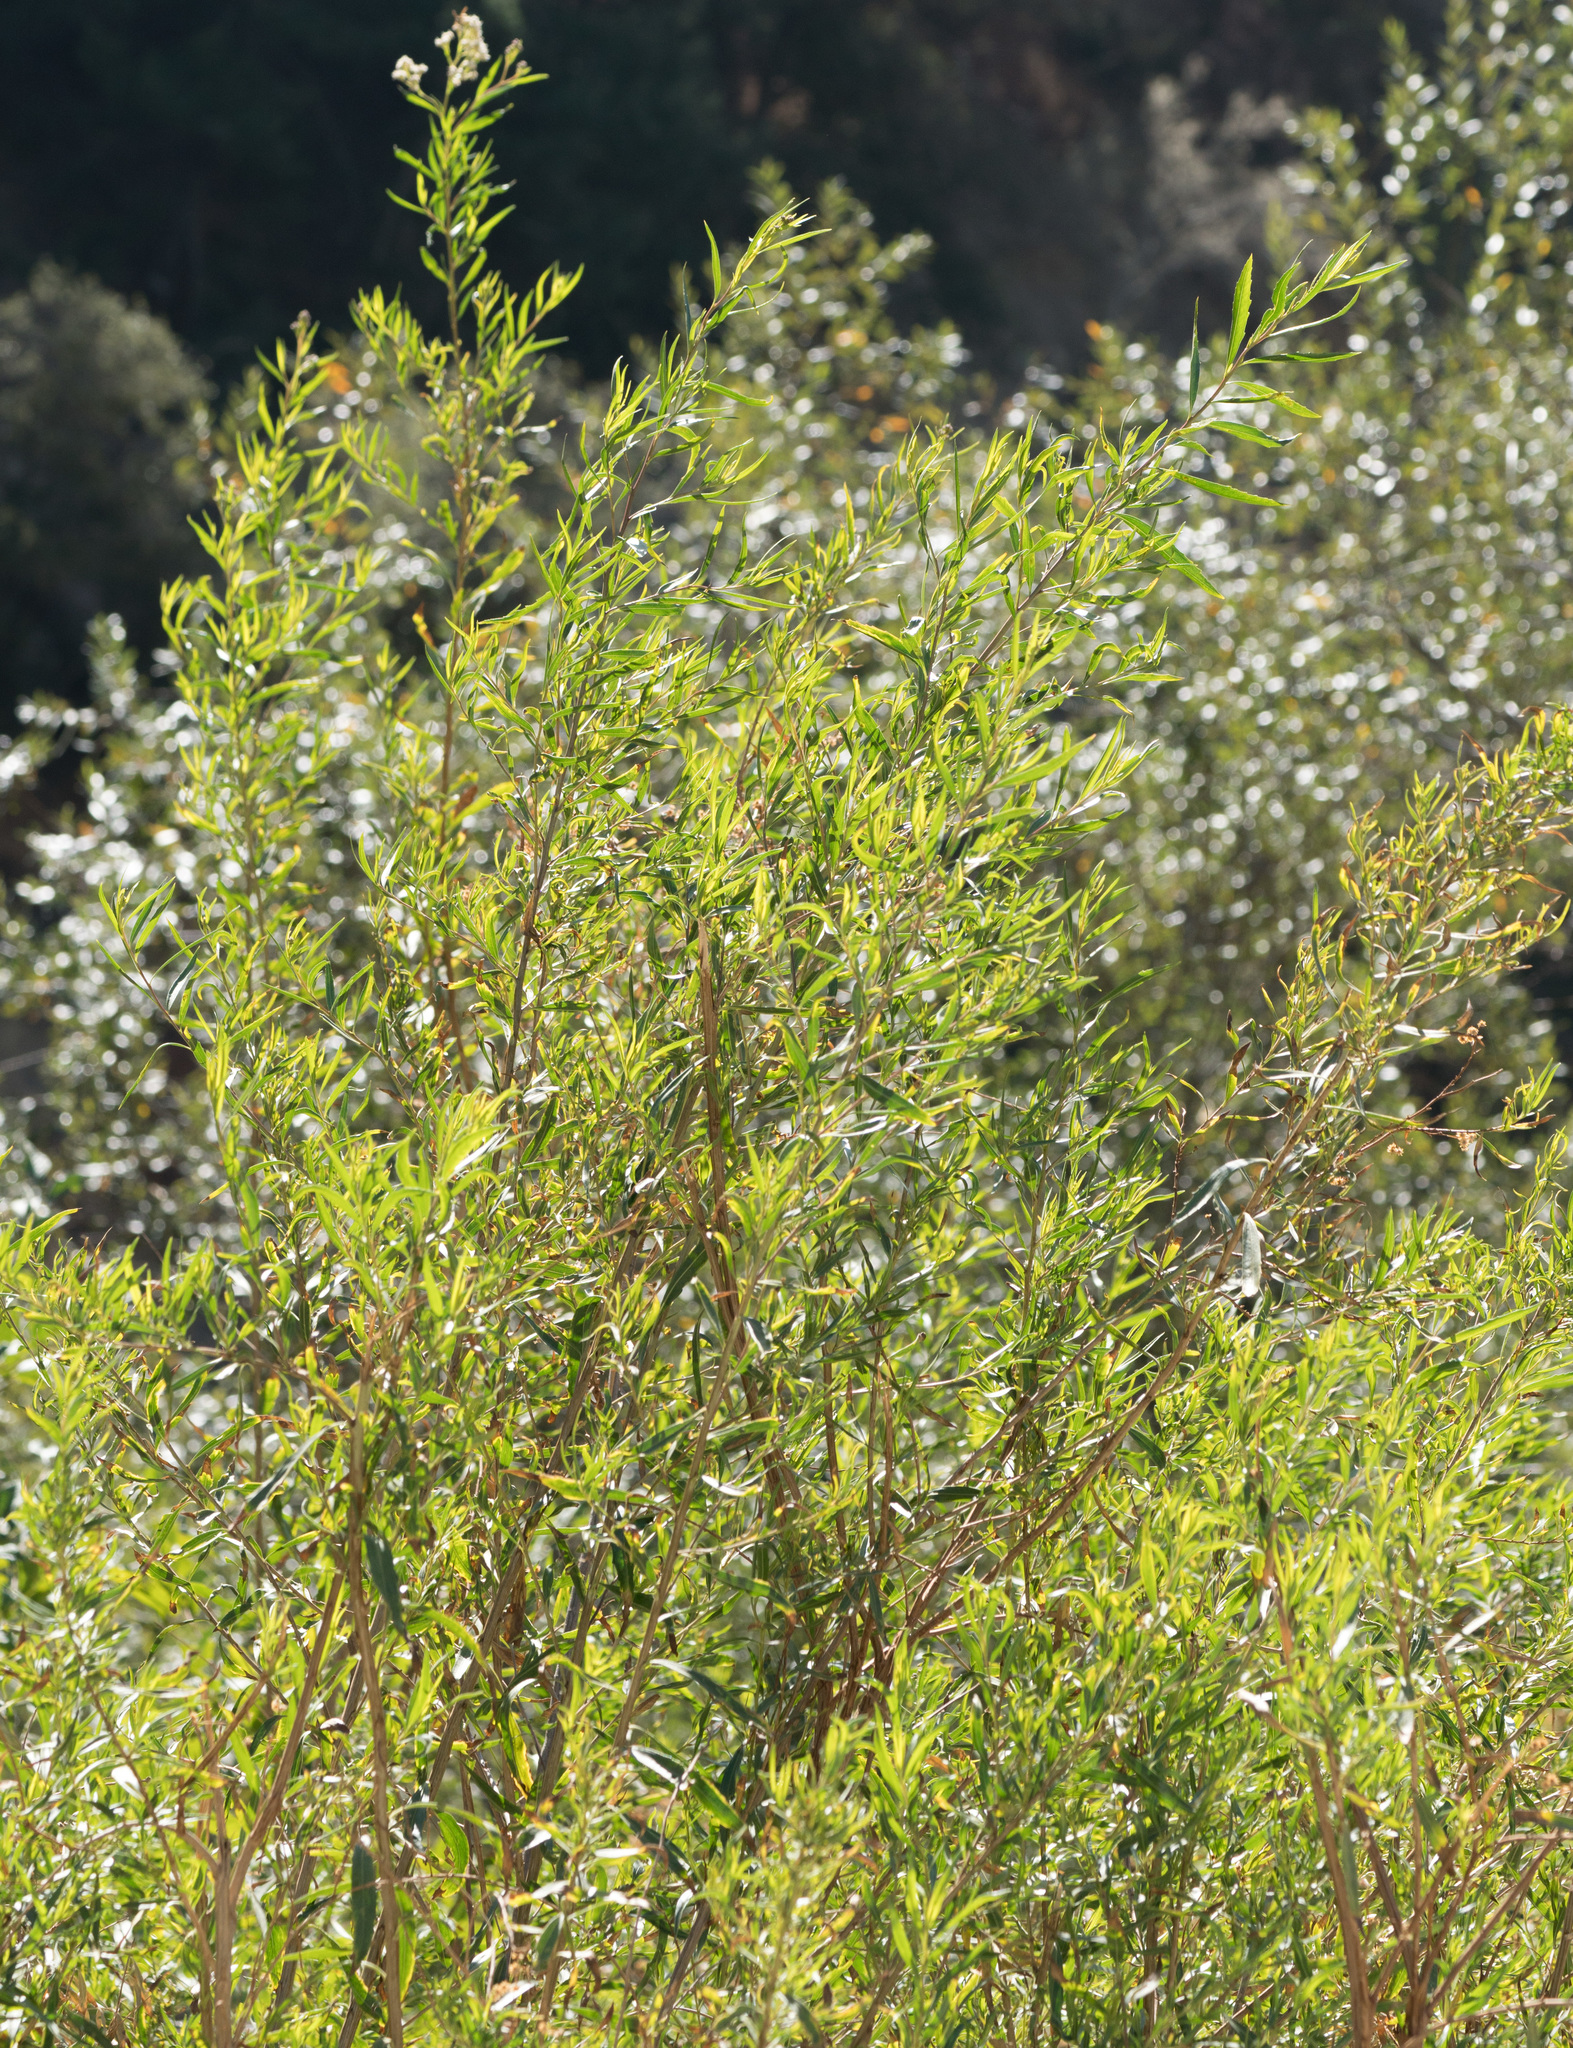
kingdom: Plantae
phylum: Tracheophyta
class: Magnoliopsida
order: Asterales
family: Asteraceae
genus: Baccharis
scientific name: Baccharis salicifolia
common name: Sticky baccharis
